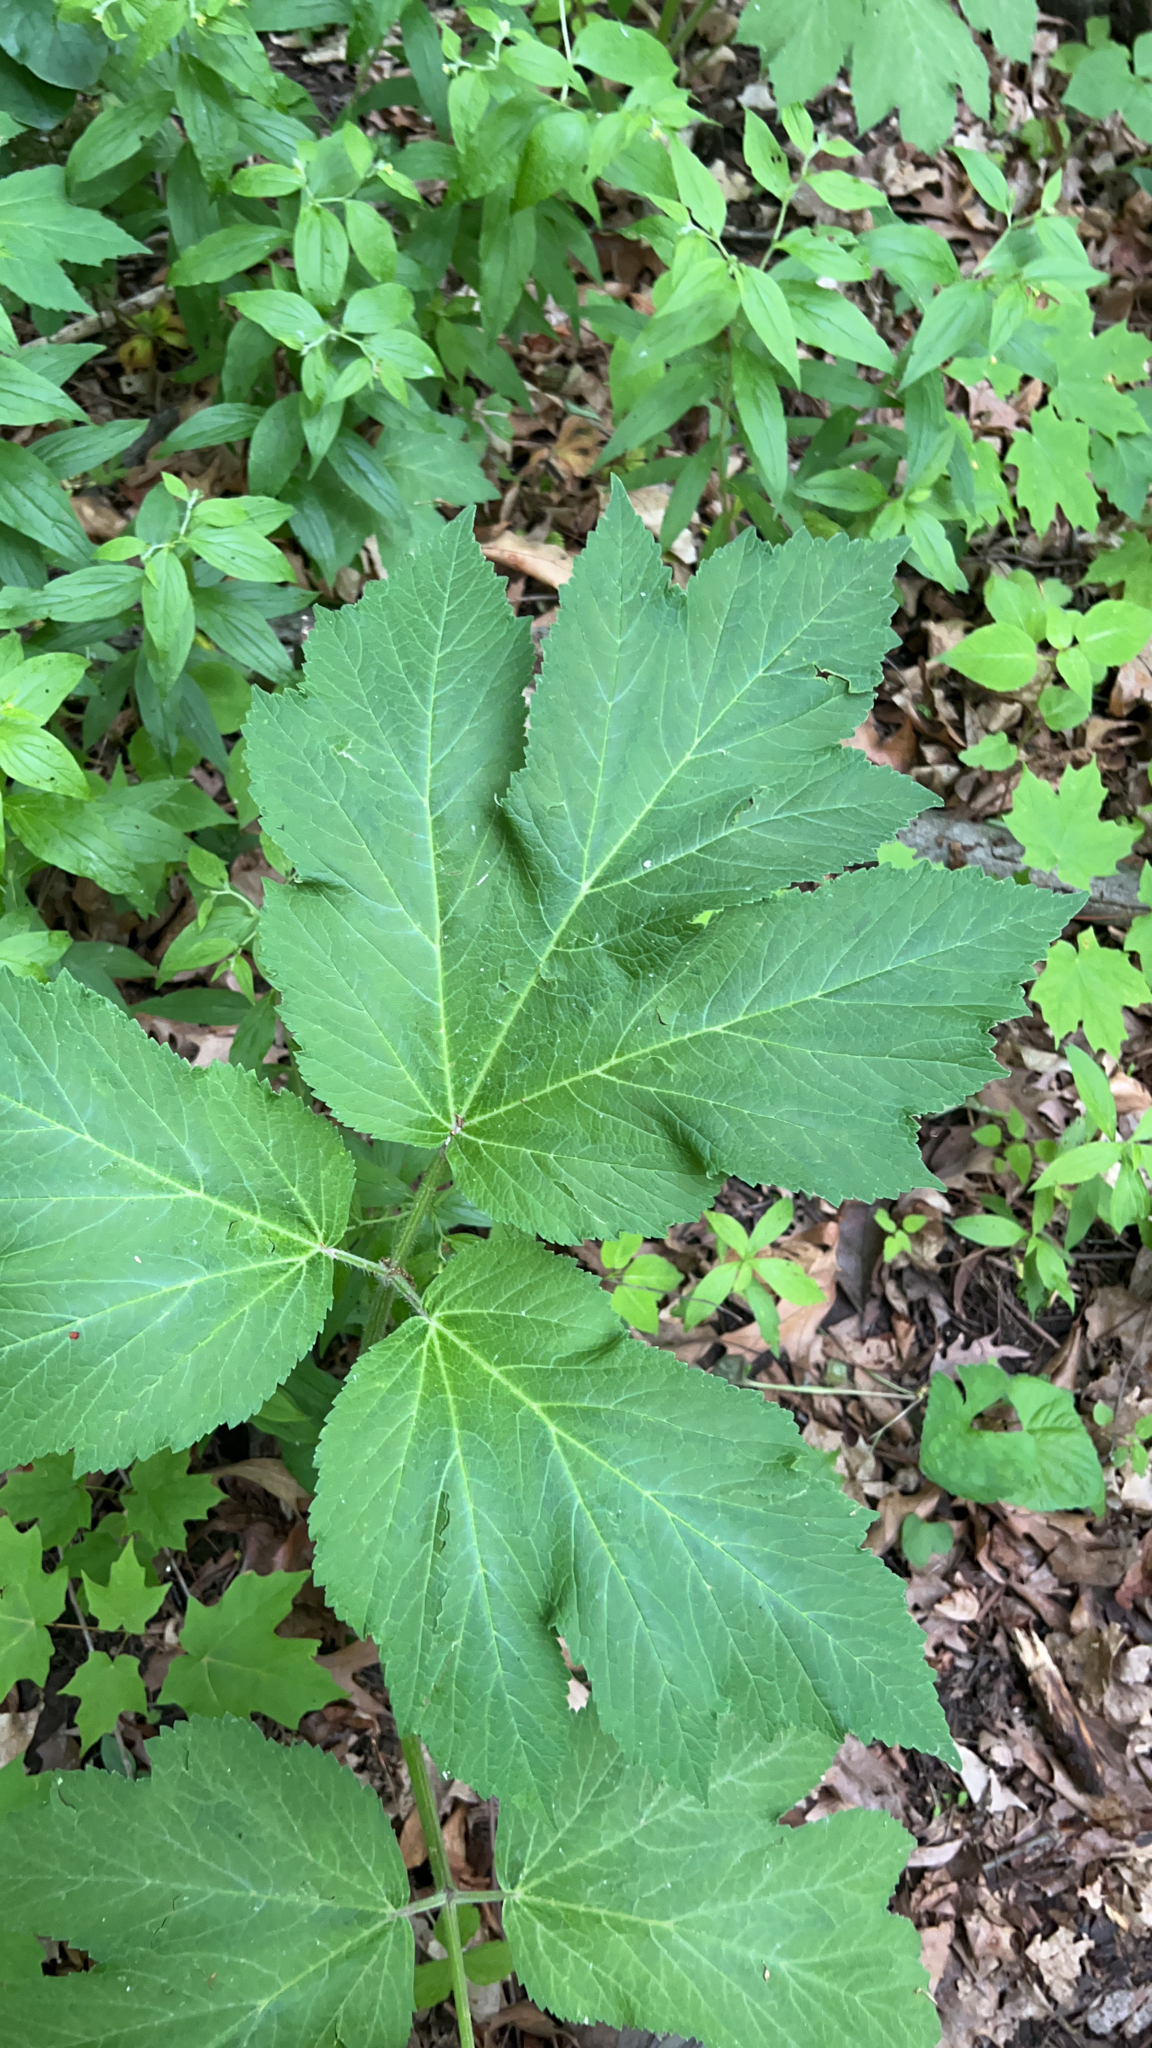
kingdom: Plantae
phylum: Tracheophyta
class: Magnoliopsida
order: Apiales
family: Apiaceae
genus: Heracleum
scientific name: Heracleum maximum
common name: American cow parsnip
